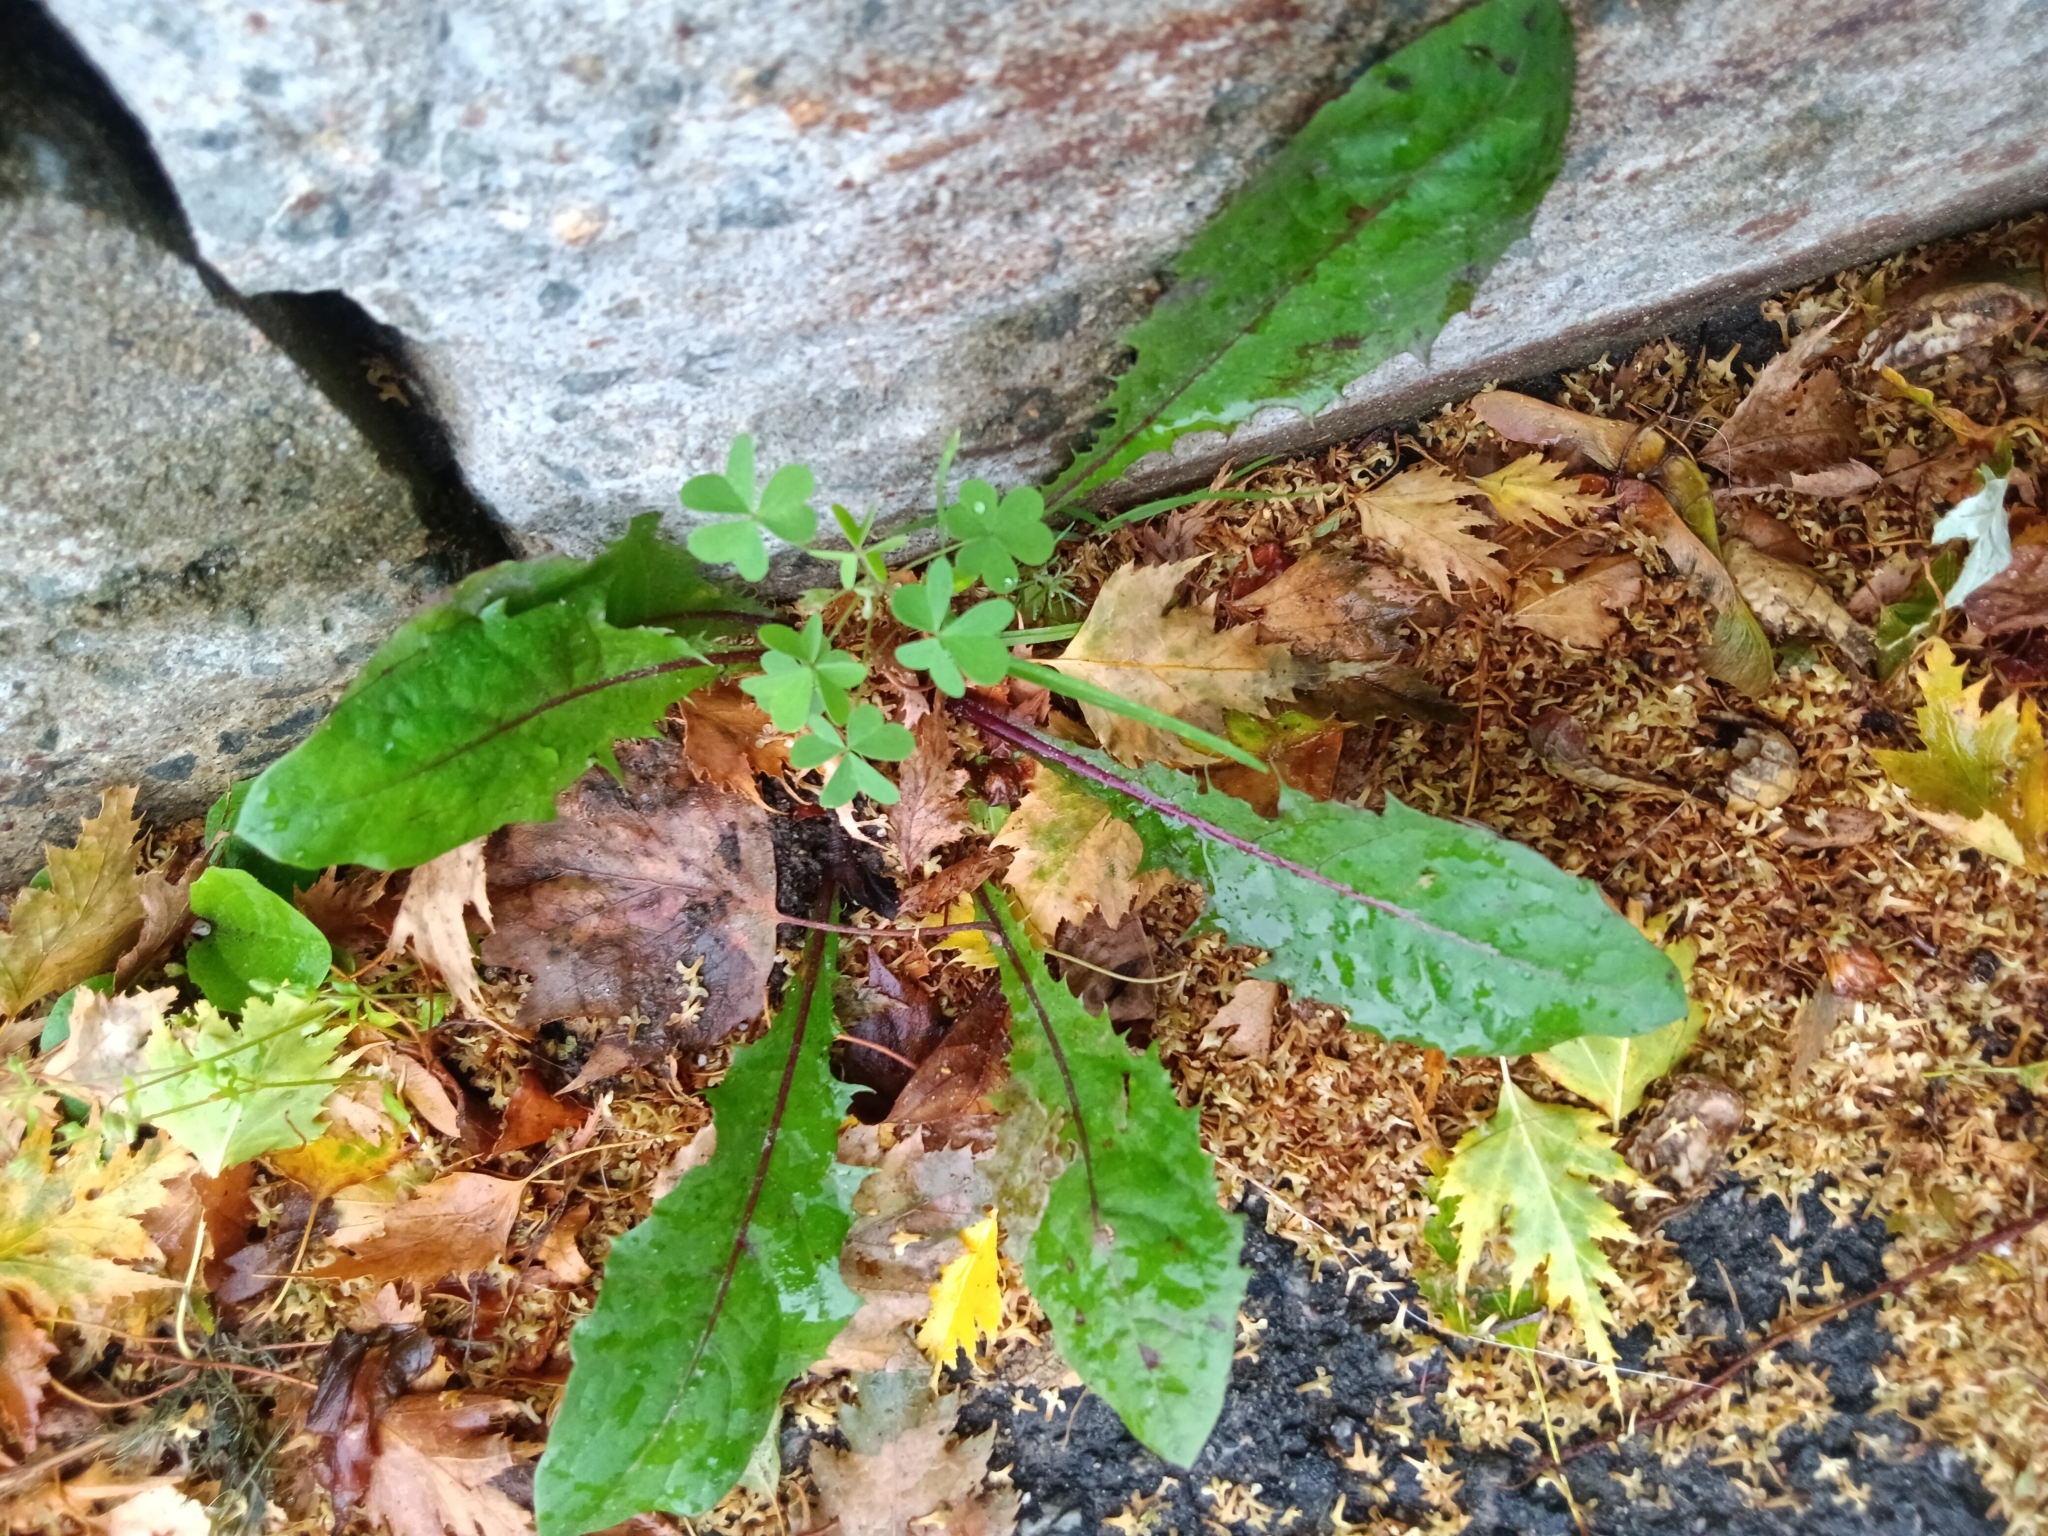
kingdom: Plantae
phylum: Tracheophyta
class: Magnoliopsida
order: Asterales
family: Asteraceae
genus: Taraxacum
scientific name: Taraxacum officinale
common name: Common dandelion
